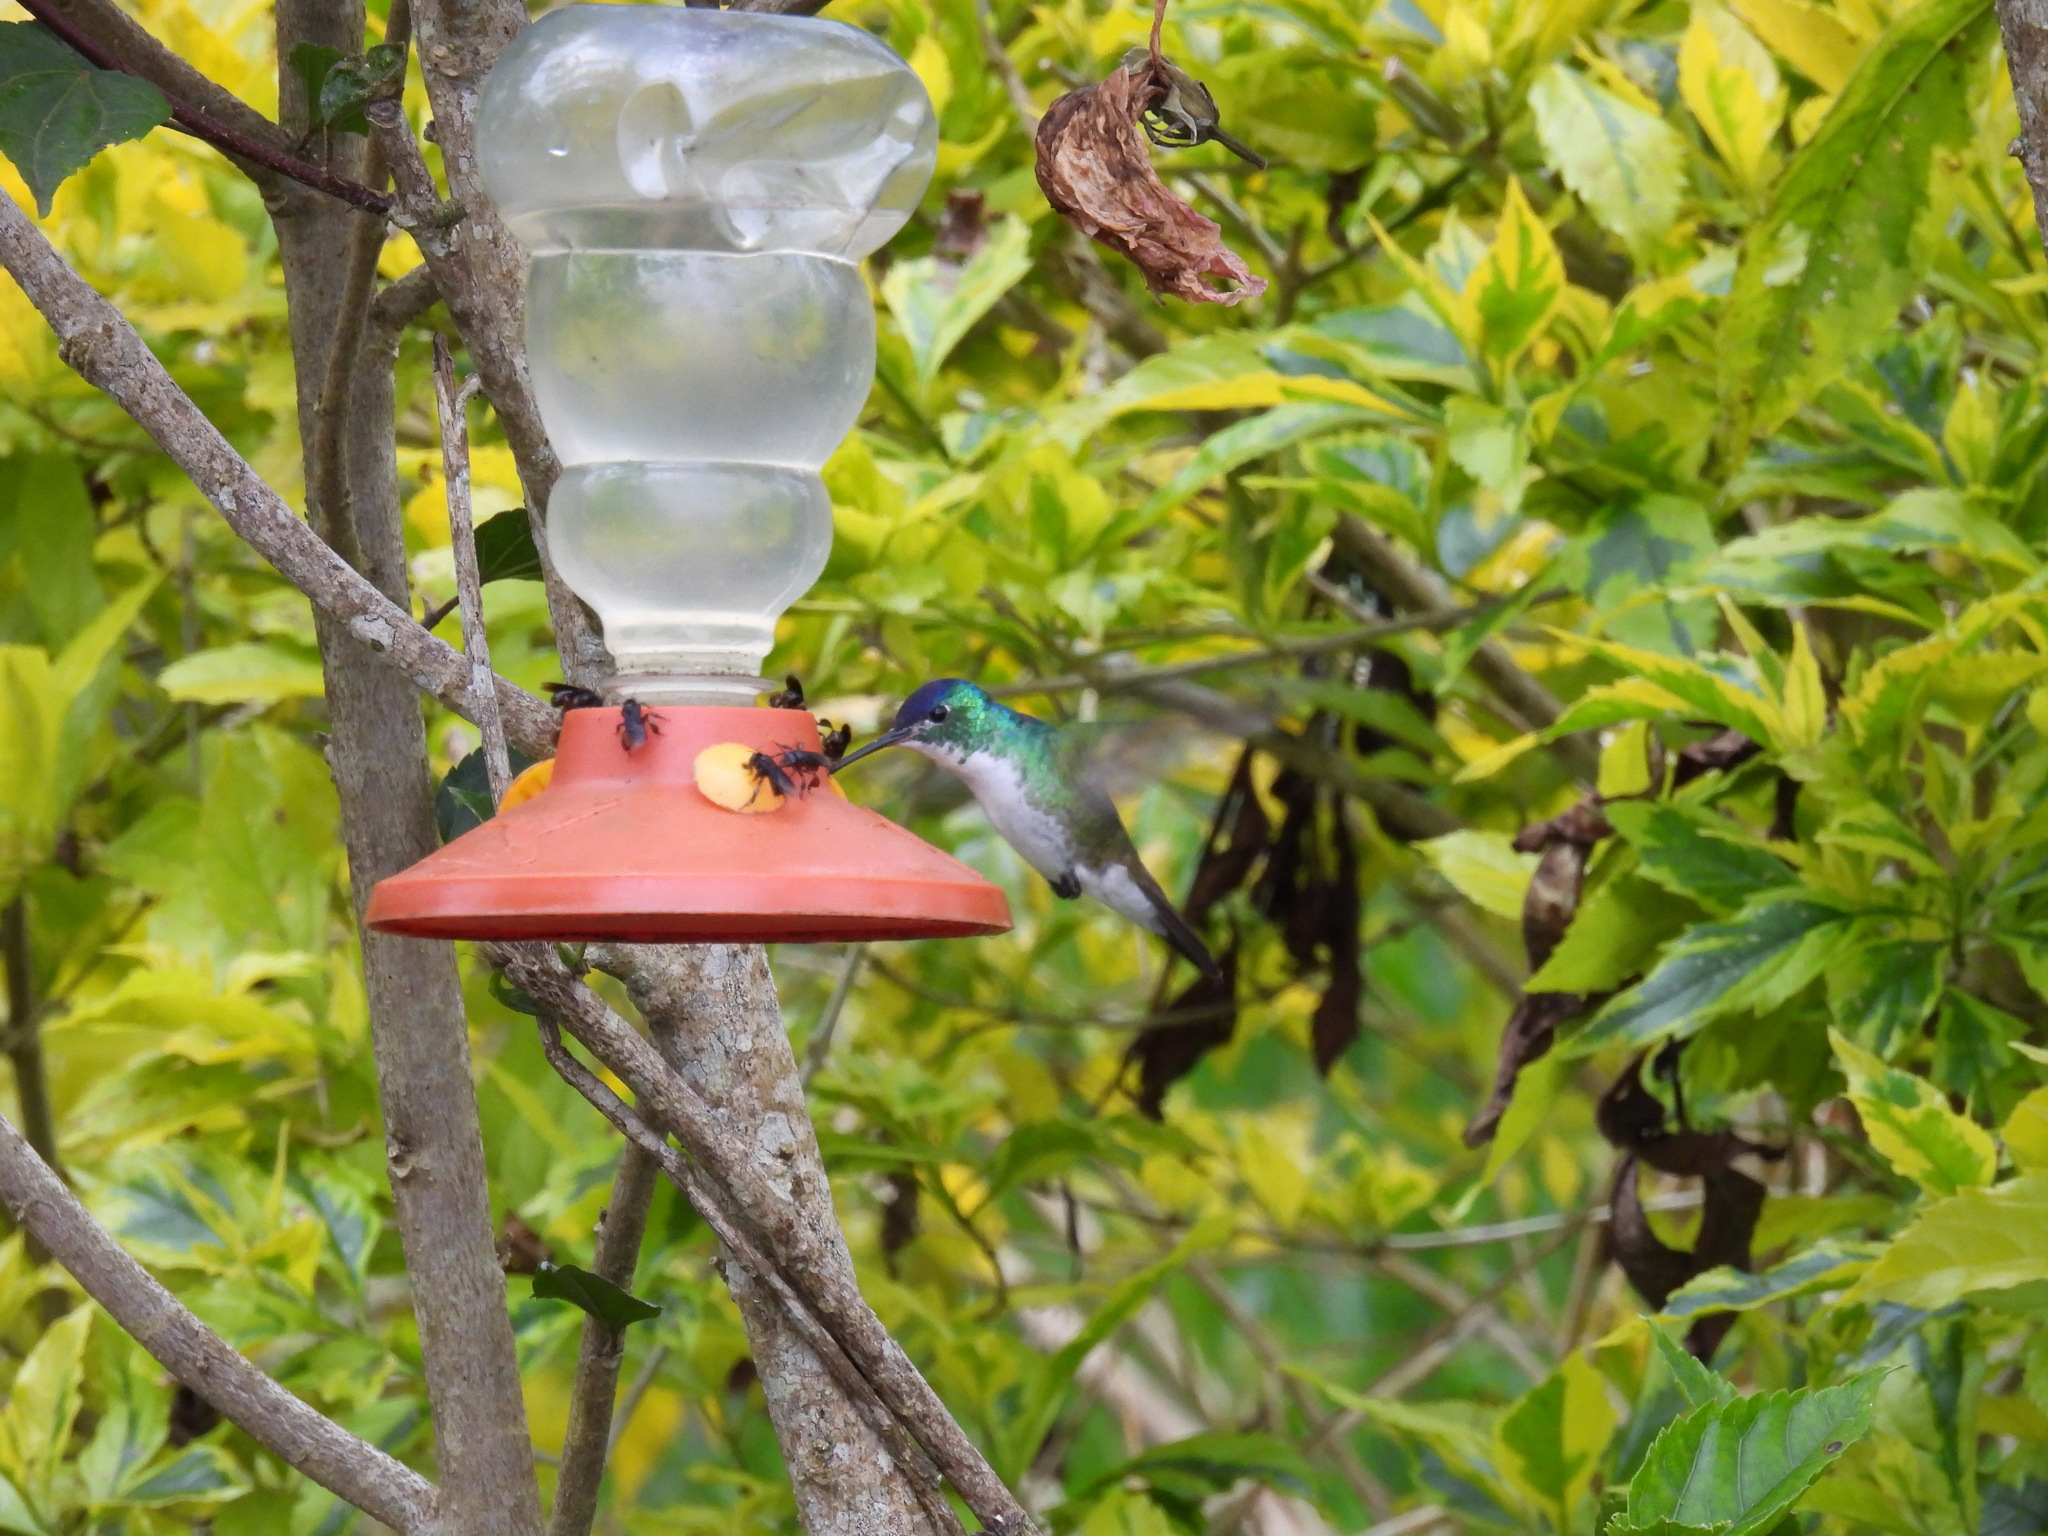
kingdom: Animalia
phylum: Chordata
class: Aves
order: Apodiformes
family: Trochilidae
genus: Uranomitra
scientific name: Uranomitra franciae
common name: Andean emerald
